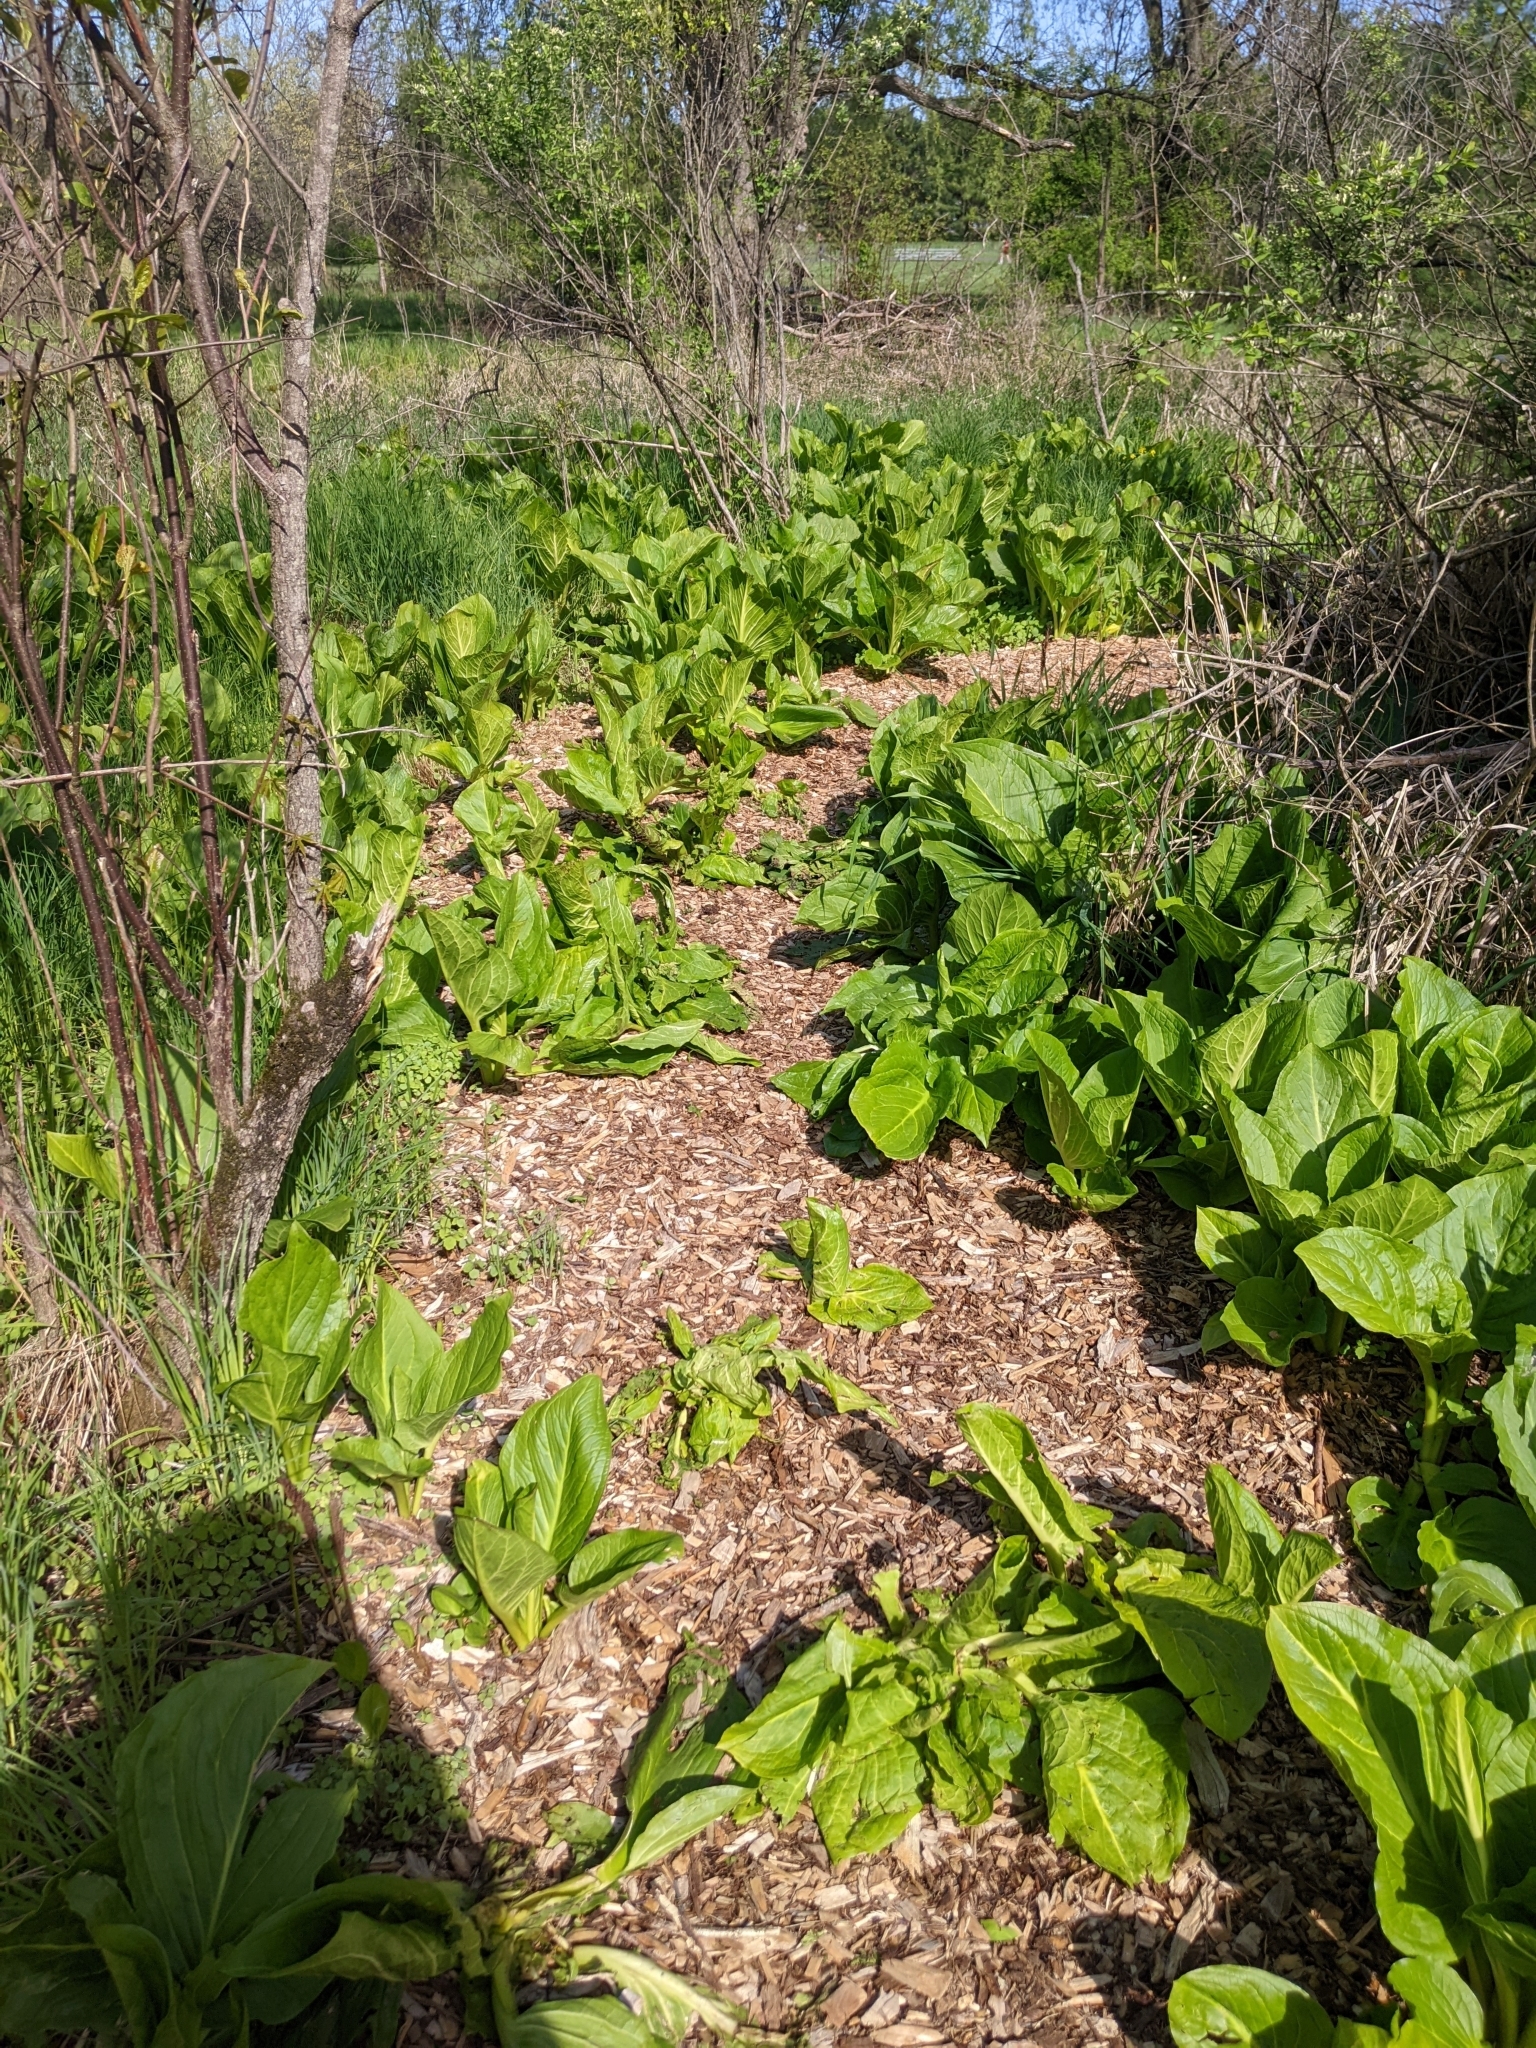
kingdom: Plantae
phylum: Tracheophyta
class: Liliopsida
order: Alismatales
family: Araceae
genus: Symplocarpus
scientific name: Symplocarpus foetidus
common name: Eastern skunk cabbage
